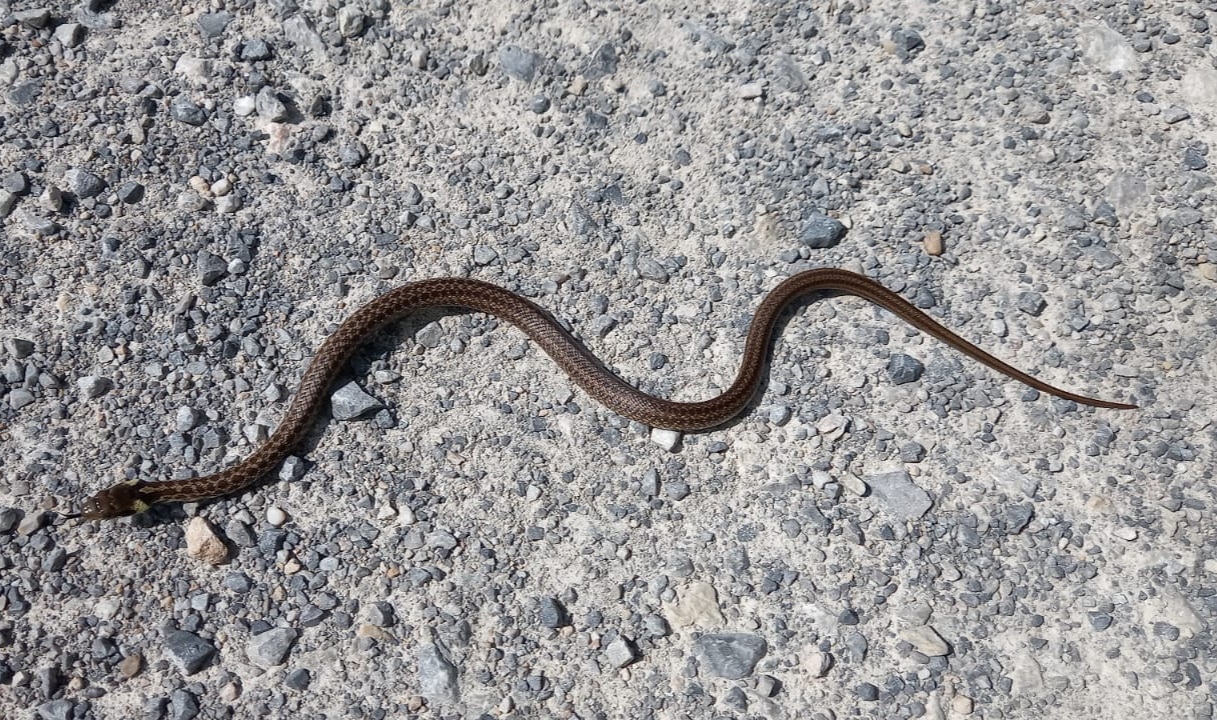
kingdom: Animalia
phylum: Chordata
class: Squamata
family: Colubridae
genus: Zamenis
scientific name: Zamenis longissimus
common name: Aesculapean snake
